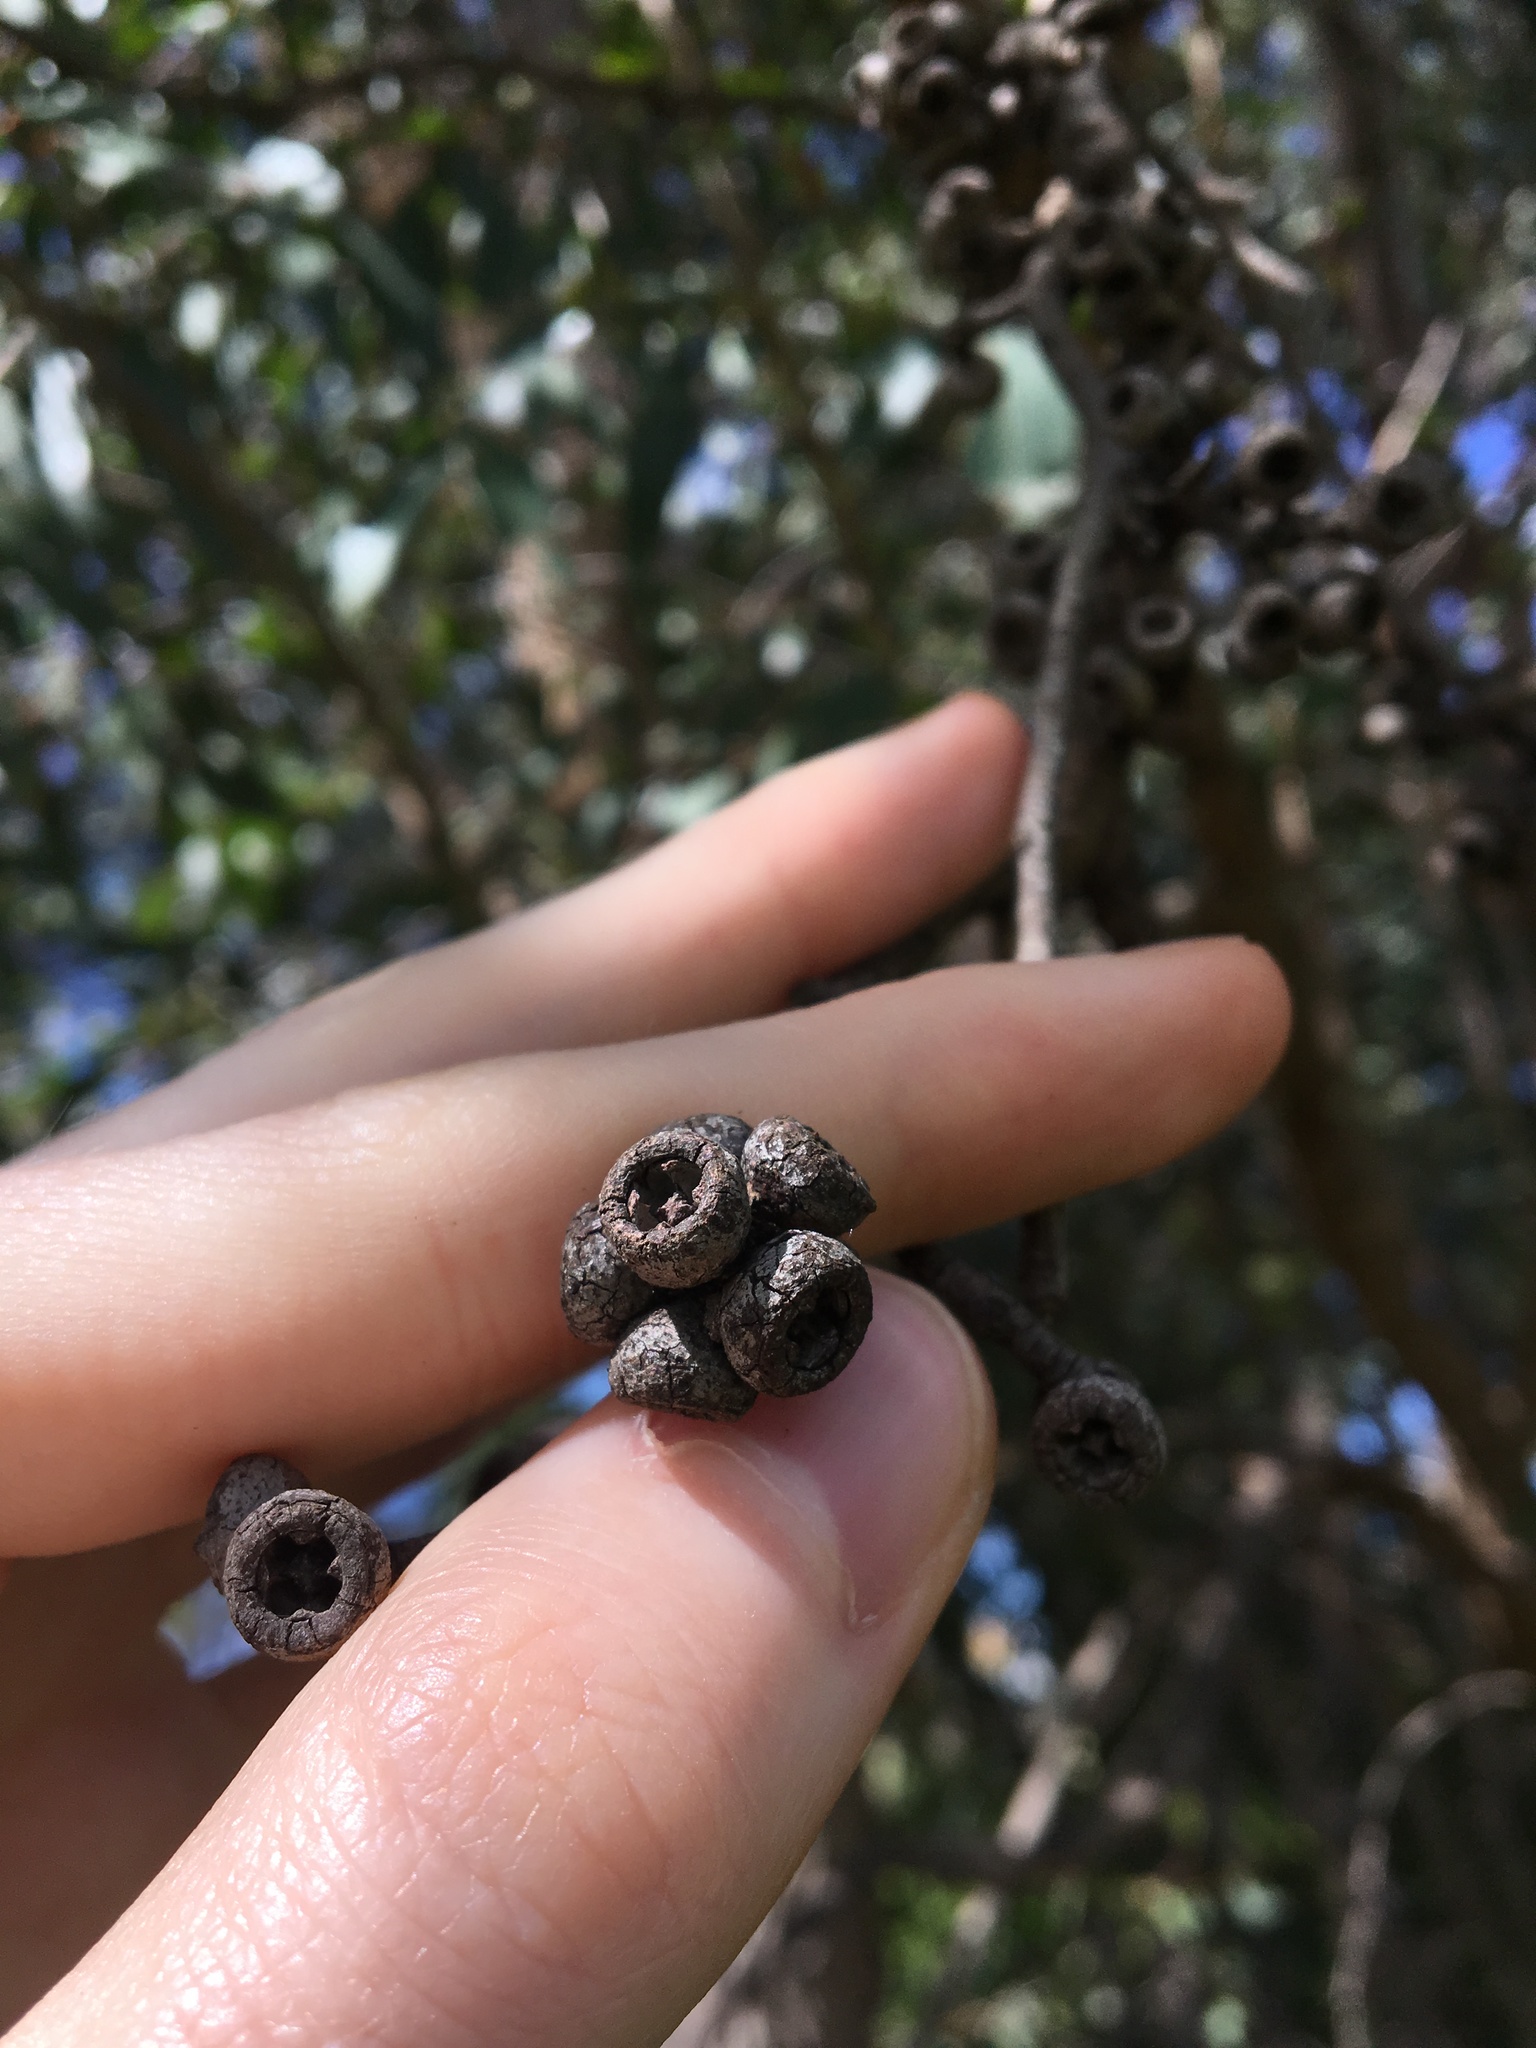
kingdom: Plantae
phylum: Tracheophyta
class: Magnoliopsida
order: Myrtales
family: Myrtaceae
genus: Eucalyptus
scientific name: Eucalyptus capitellata
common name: Brown-stringy-bark
